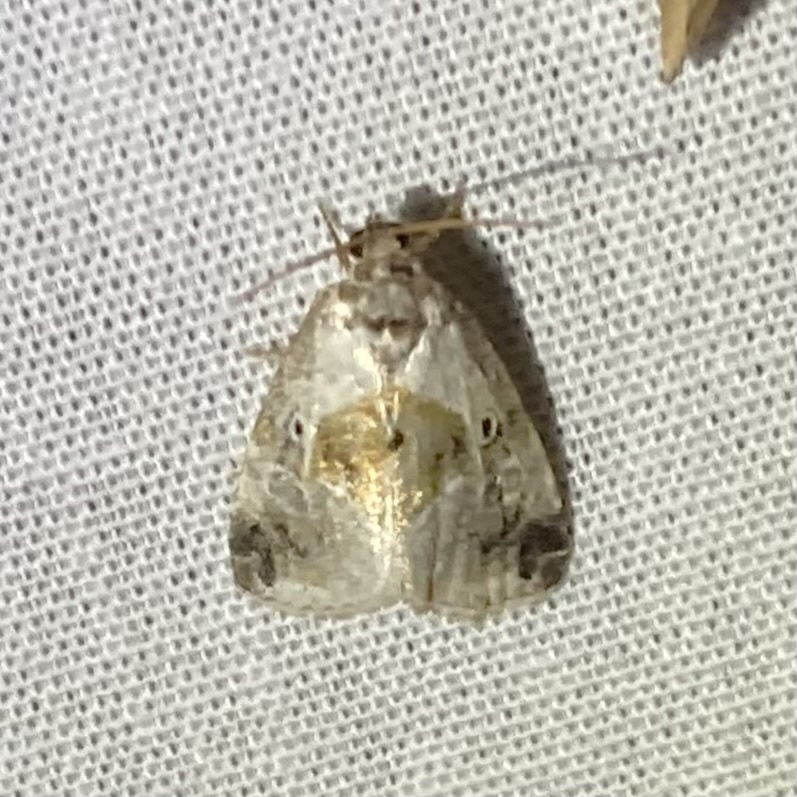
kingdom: Animalia
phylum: Arthropoda
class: Insecta
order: Lepidoptera
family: Noctuidae
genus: Maliattha
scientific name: Maliattha synochitis
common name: Black-dotted glyph
